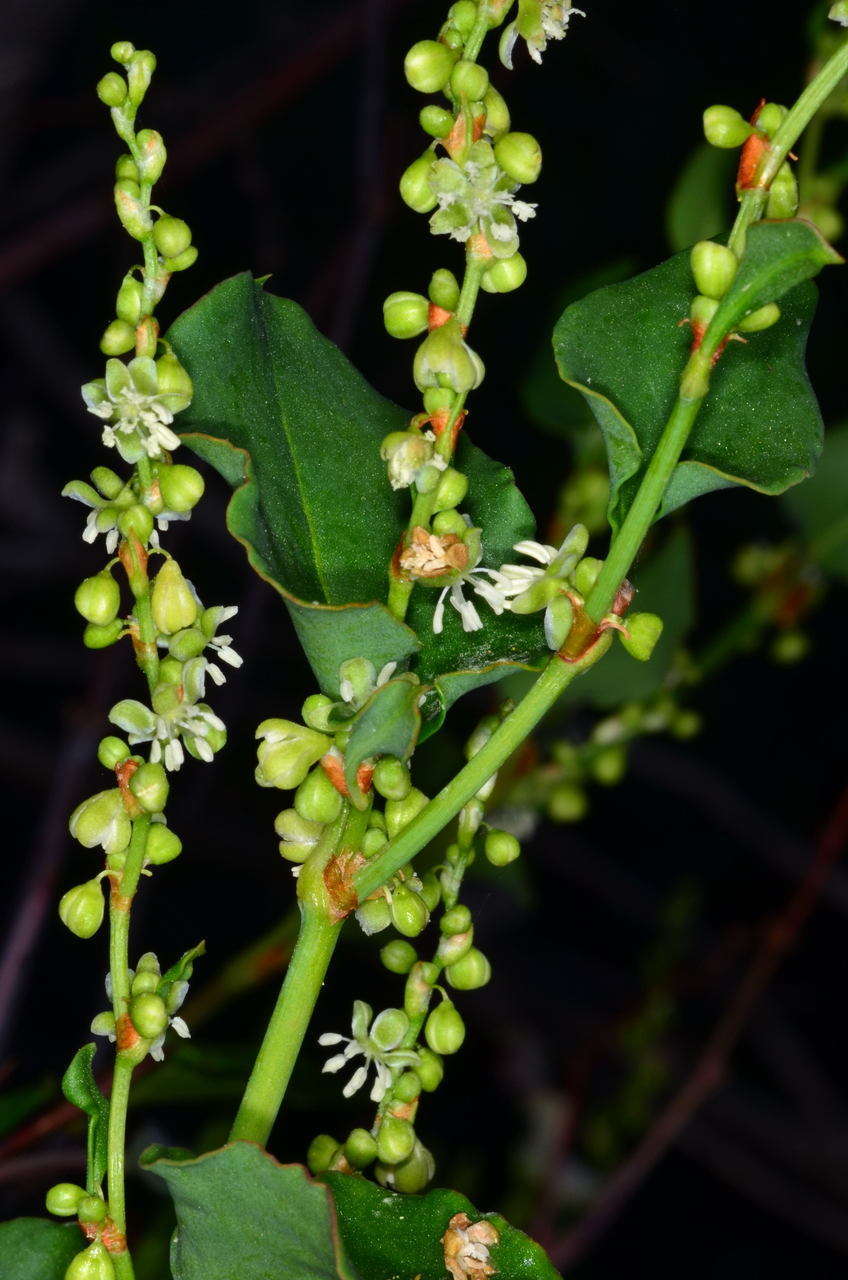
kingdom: Plantae
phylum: Tracheophyta
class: Magnoliopsida
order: Caryophyllales
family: Polygonaceae
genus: Muehlenbeckia
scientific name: Muehlenbeckia rhyticarya
